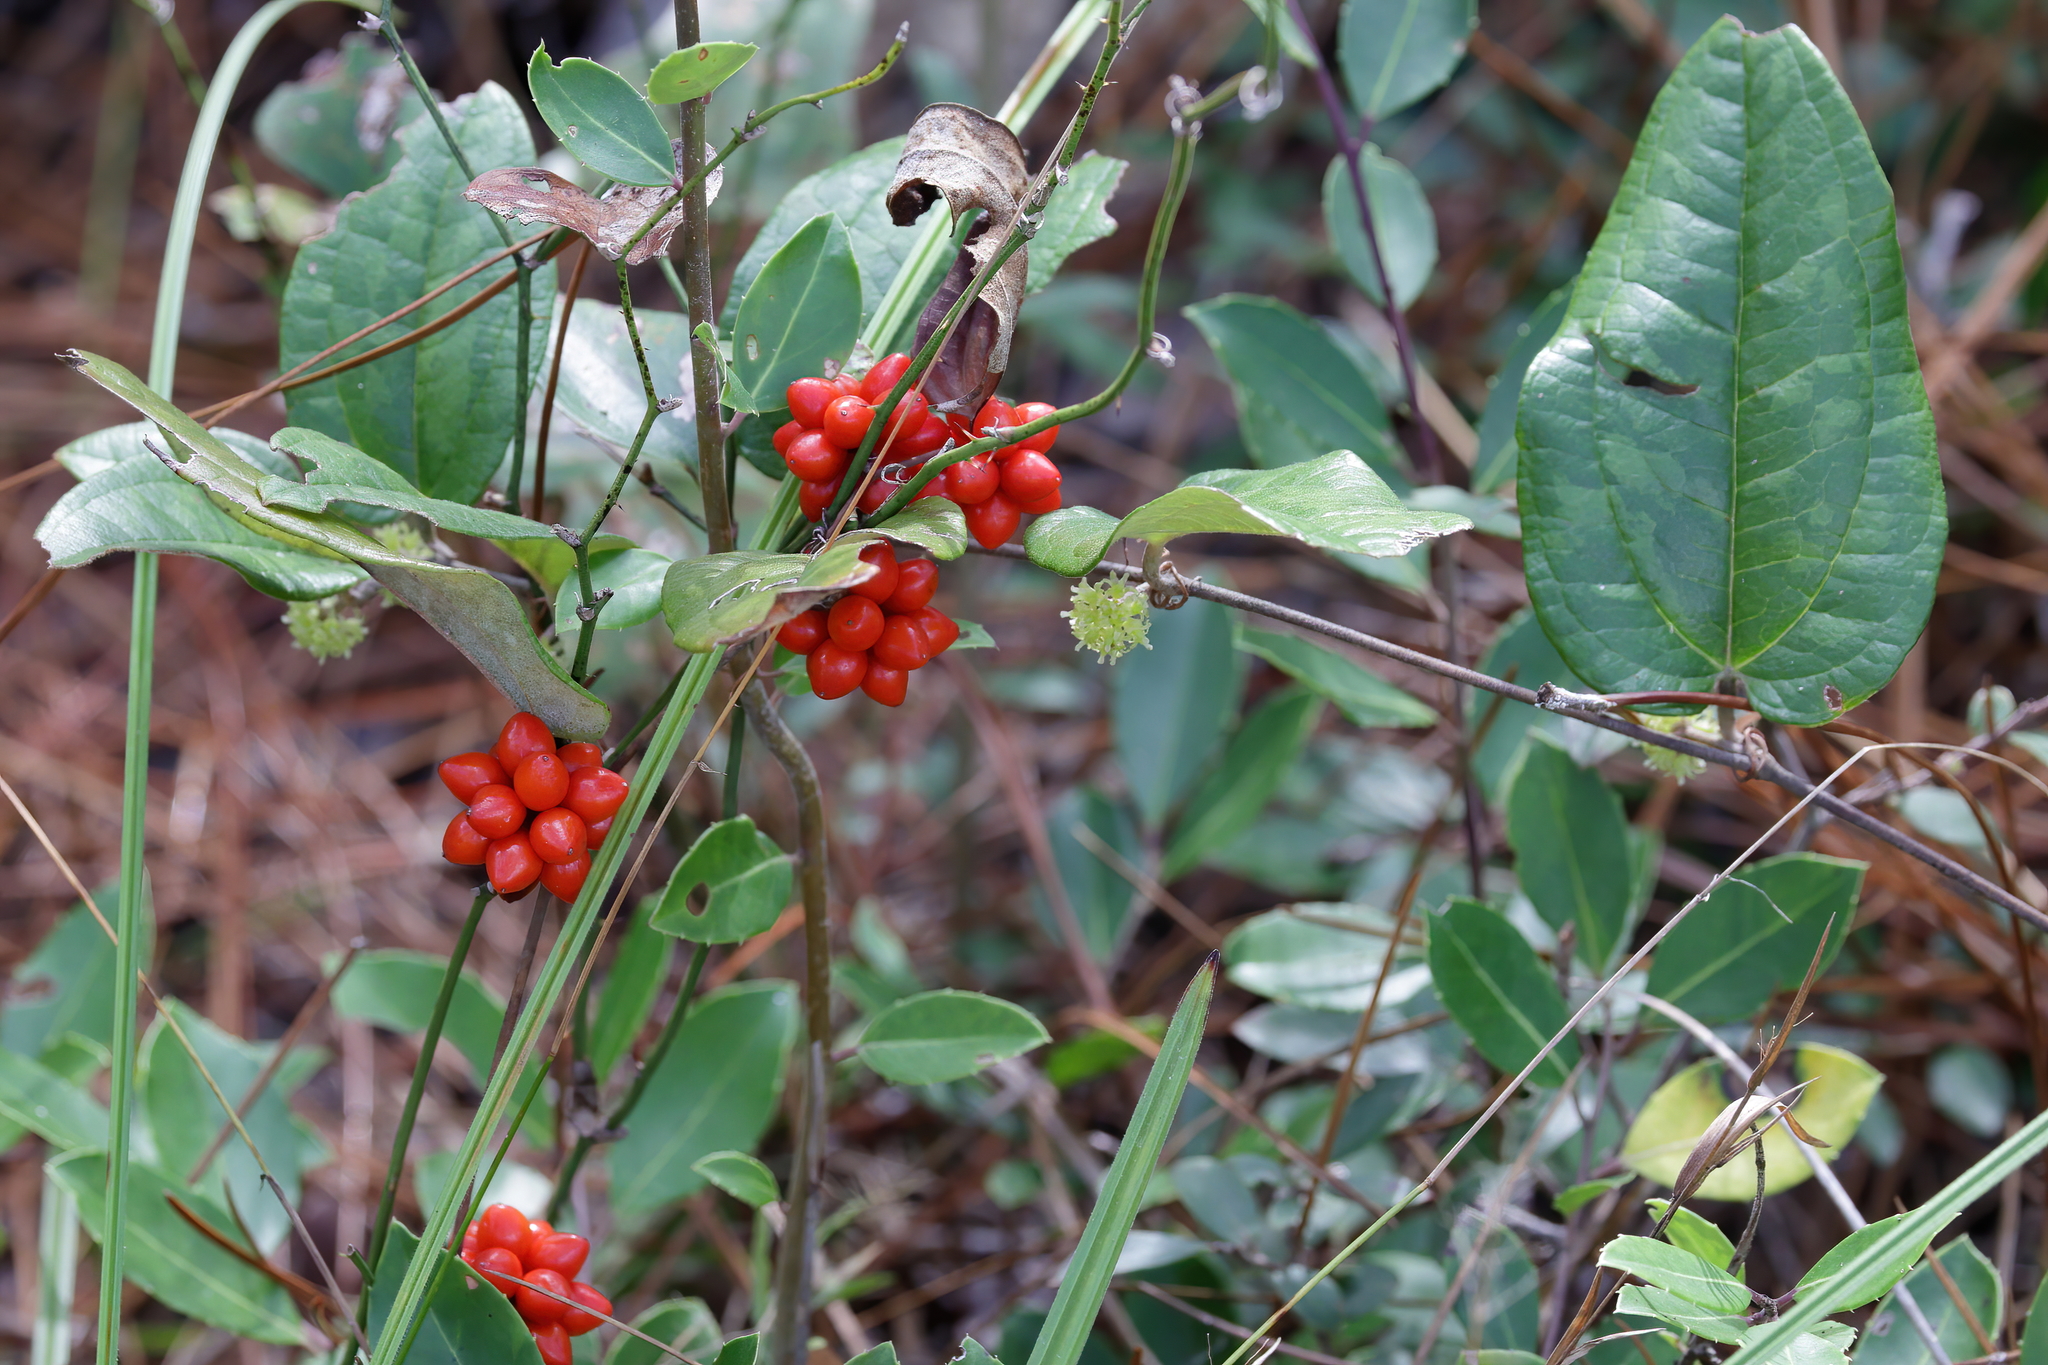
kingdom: Plantae
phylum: Tracheophyta
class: Liliopsida
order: Liliales
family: Smilacaceae
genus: Smilax
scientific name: Smilax pumila
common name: Sarsaparilla-vine
